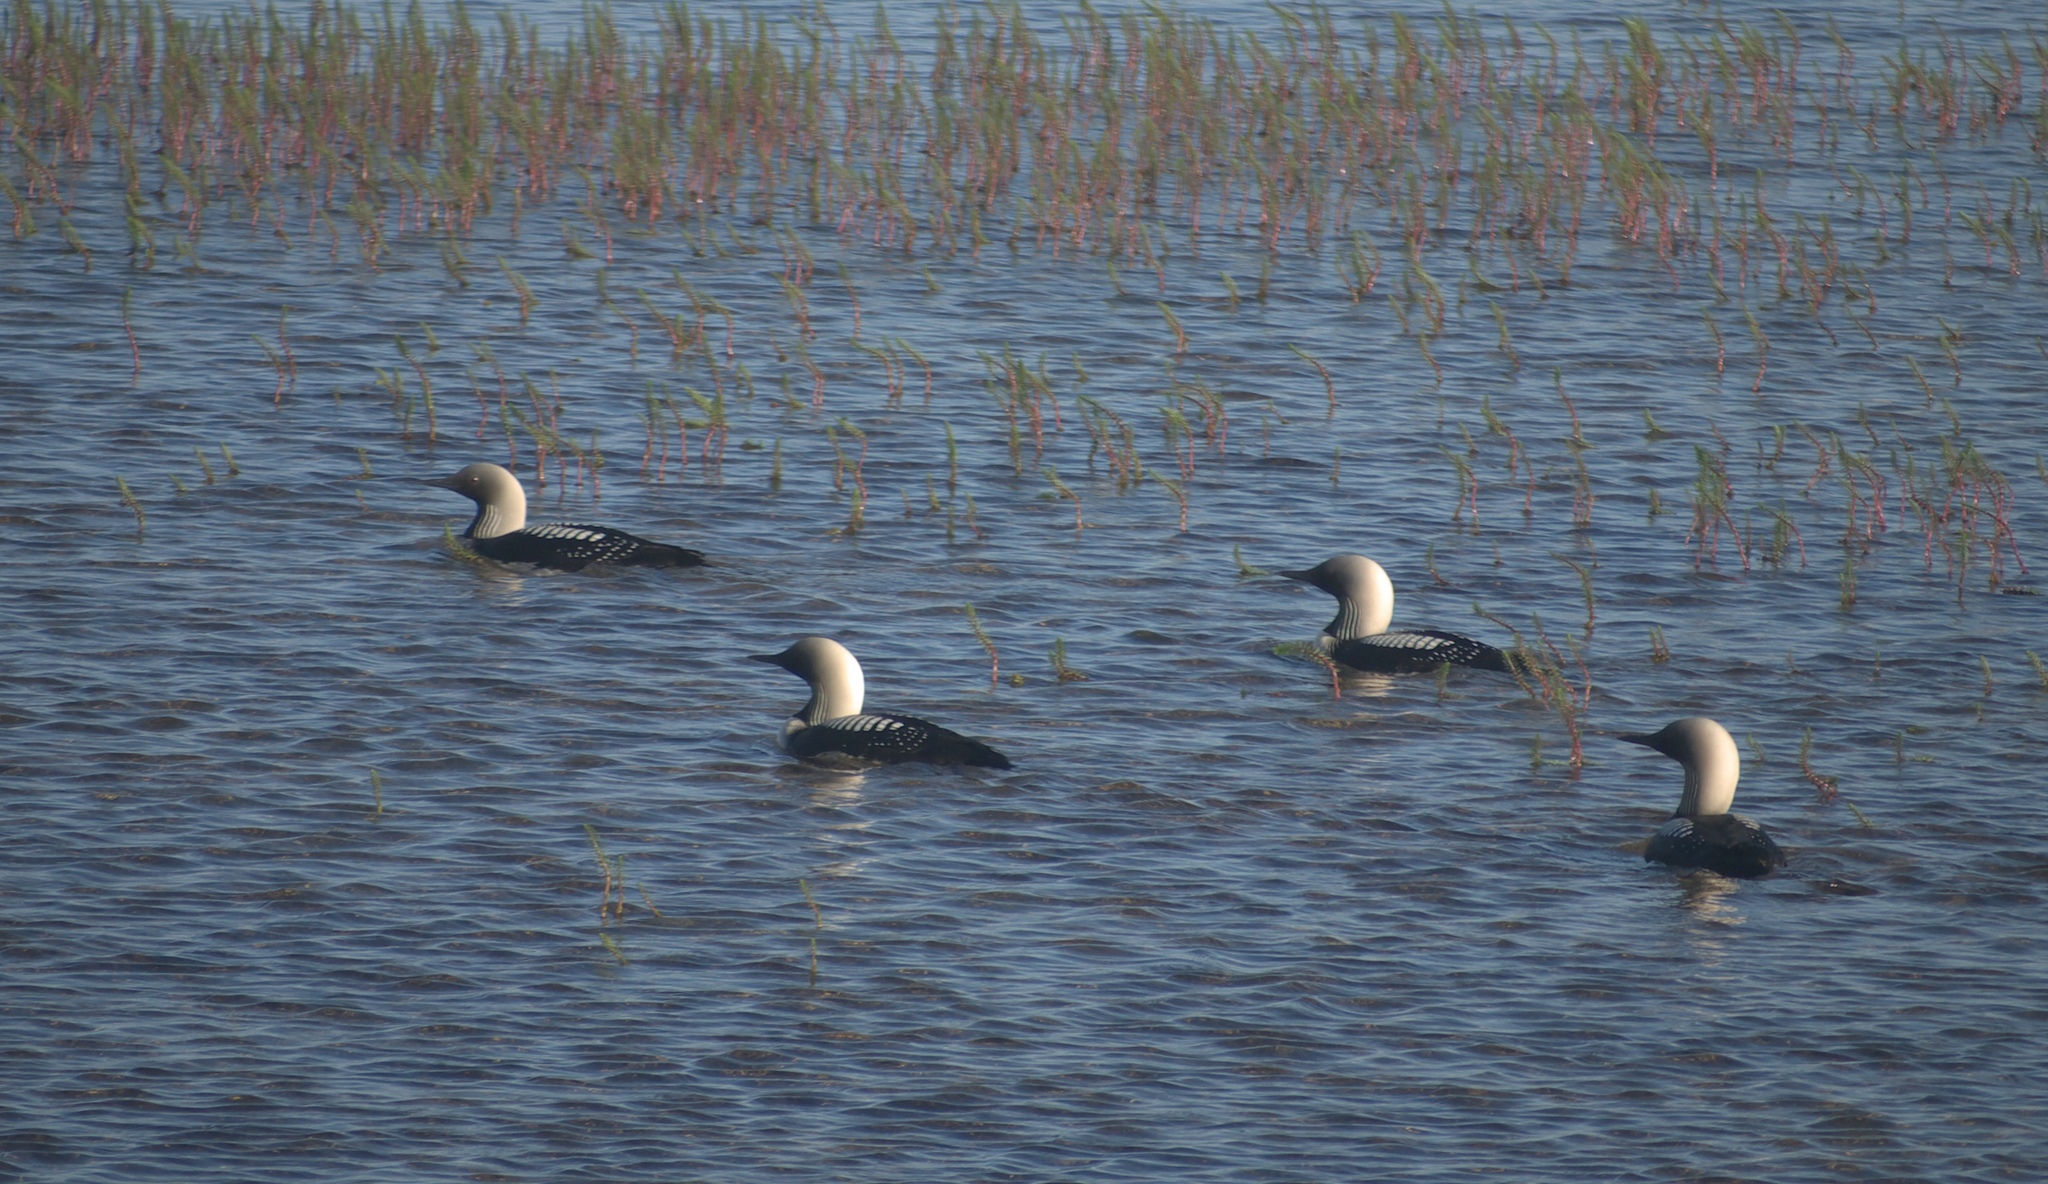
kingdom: Animalia
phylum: Chordata
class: Aves
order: Gaviiformes
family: Gaviidae
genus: Gavia
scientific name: Gavia pacifica
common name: Pacific loon
